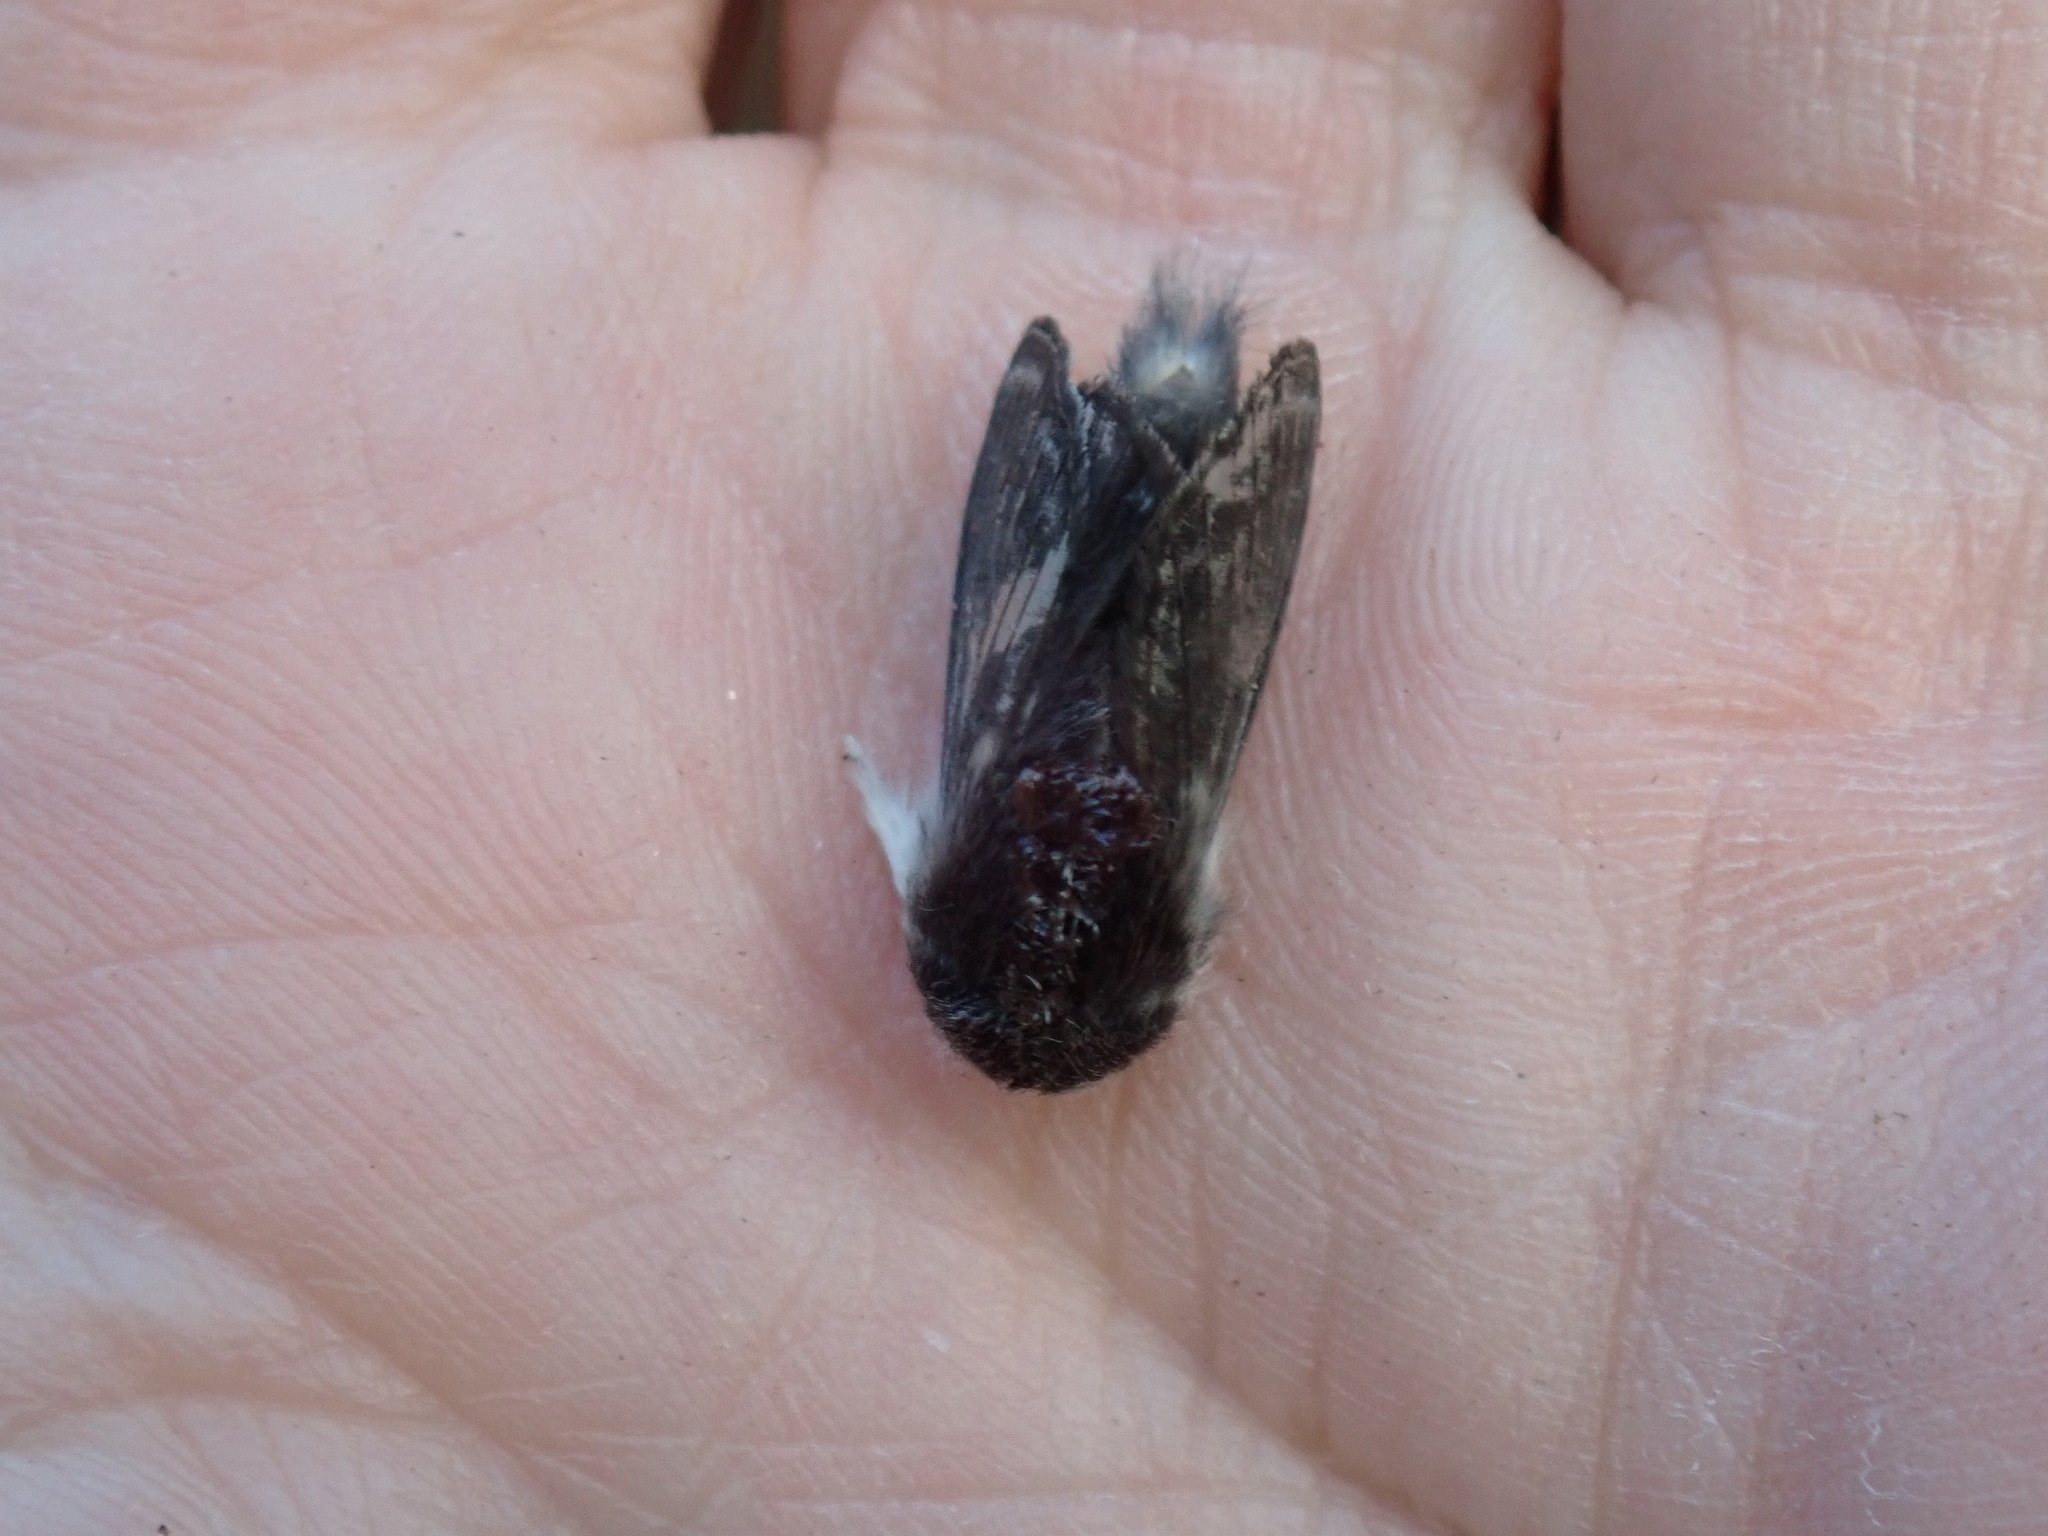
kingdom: Animalia
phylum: Arthropoda
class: Insecta
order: Lepidoptera
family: Lasiocampidae
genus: Tolype
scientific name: Tolype laricis
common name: Larch tolype moth
